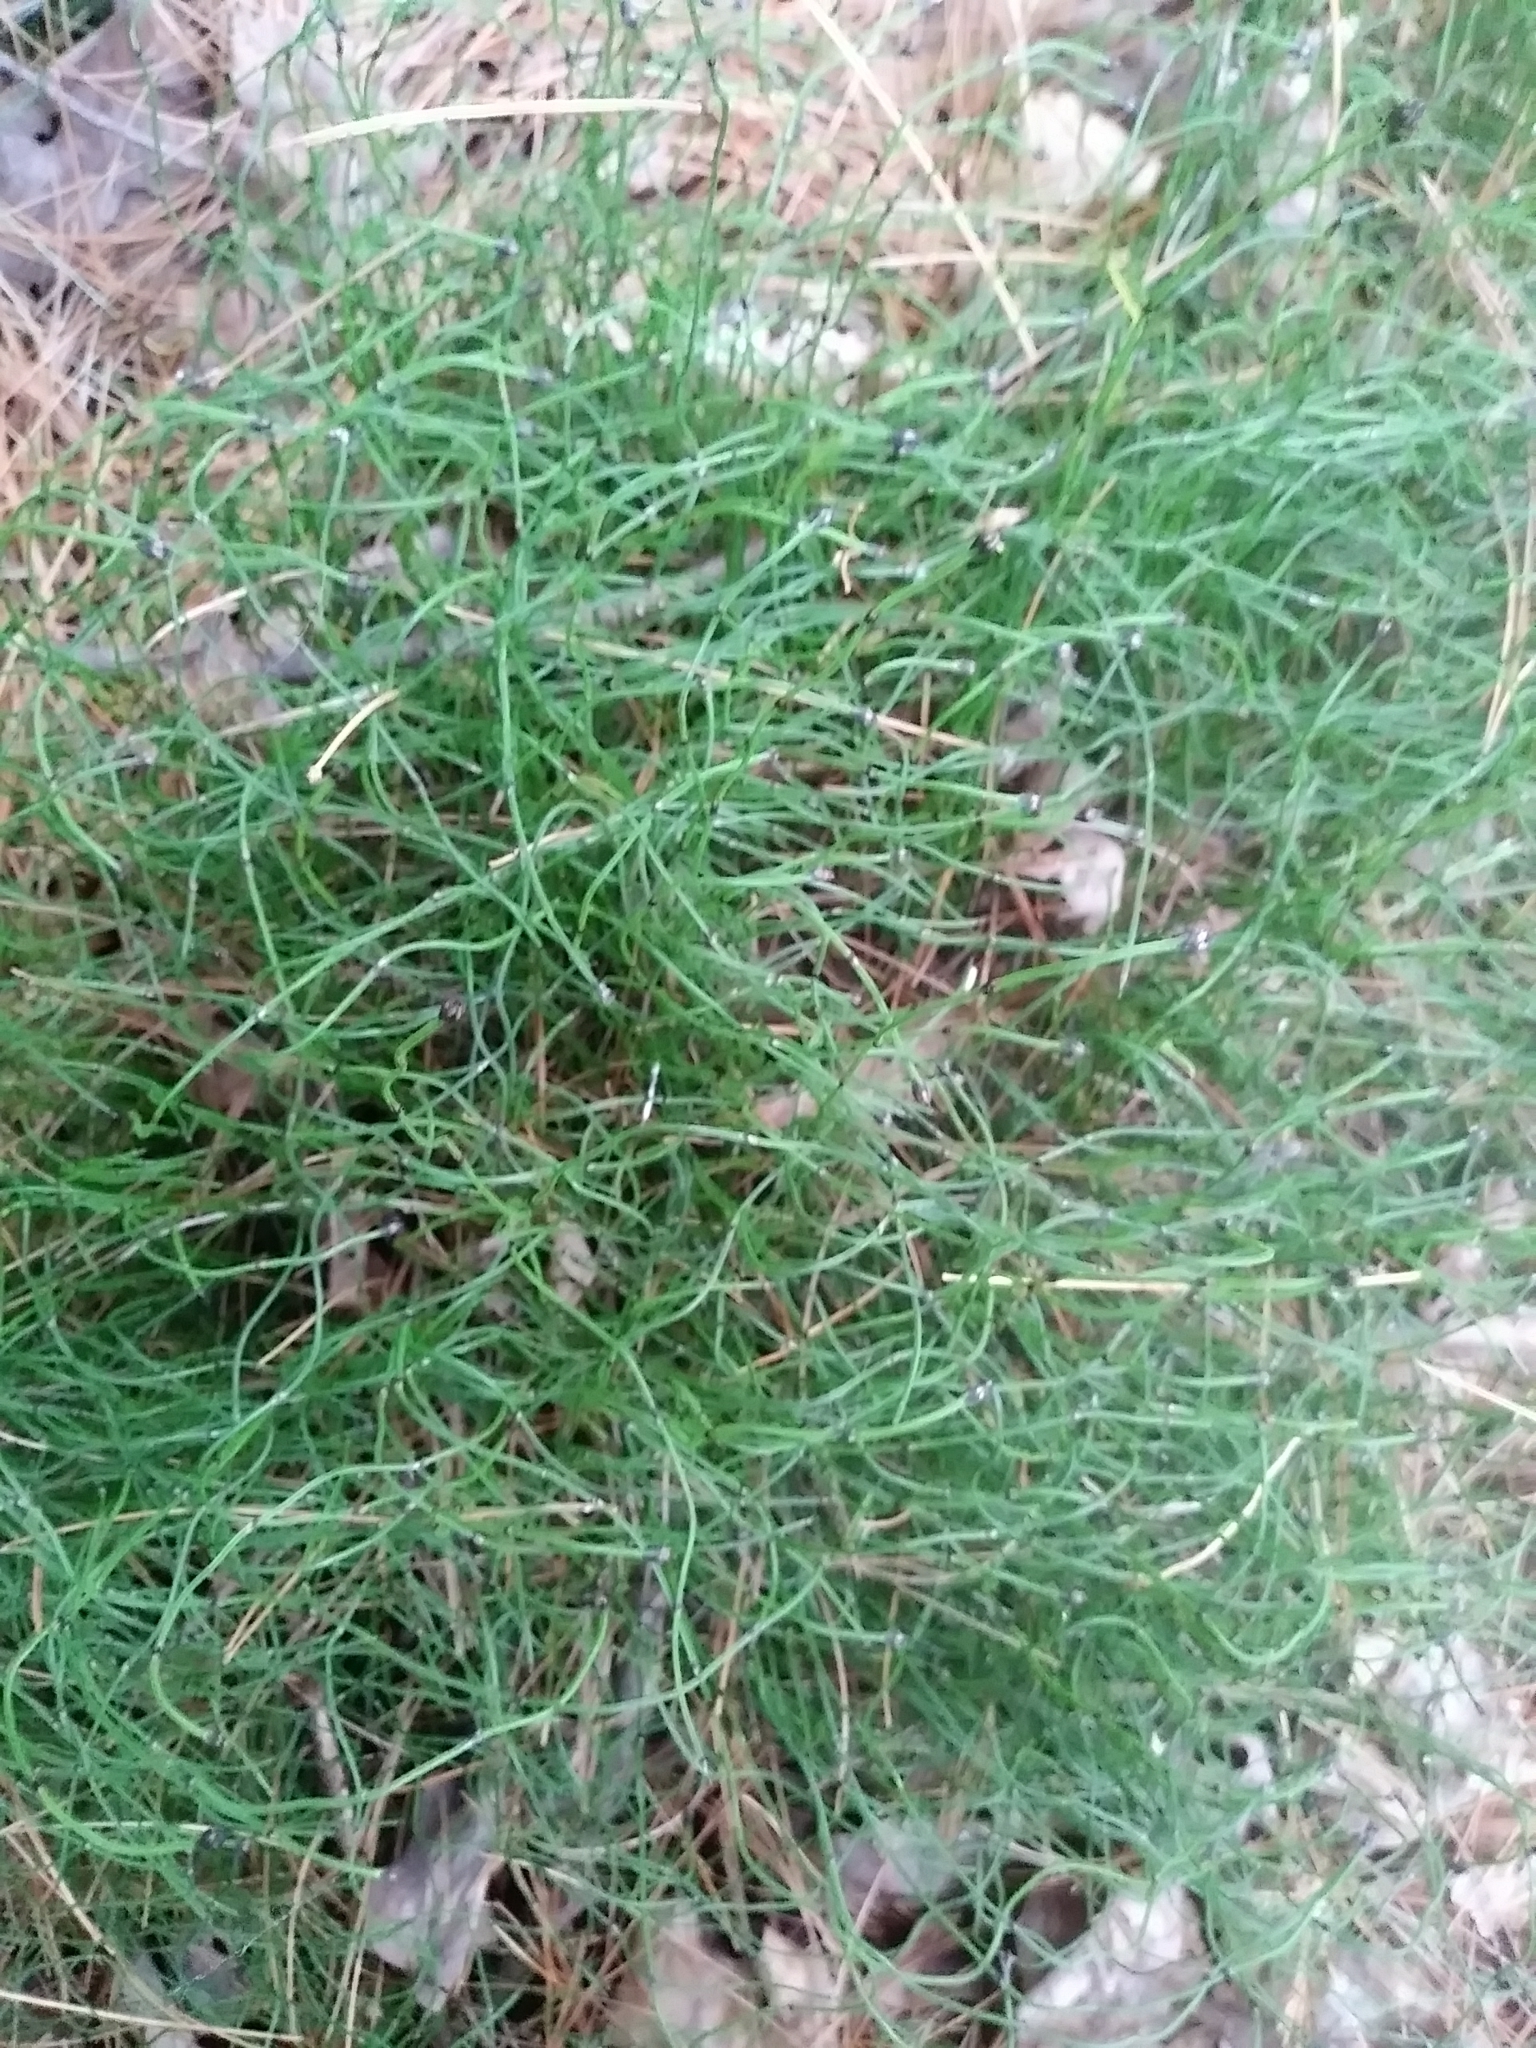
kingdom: Plantae
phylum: Tracheophyta
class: Polypodiopsida
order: Equisetales
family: Equisetaceae
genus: Equisetum
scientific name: Equisetum scirpoides
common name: Delicate horsetail
